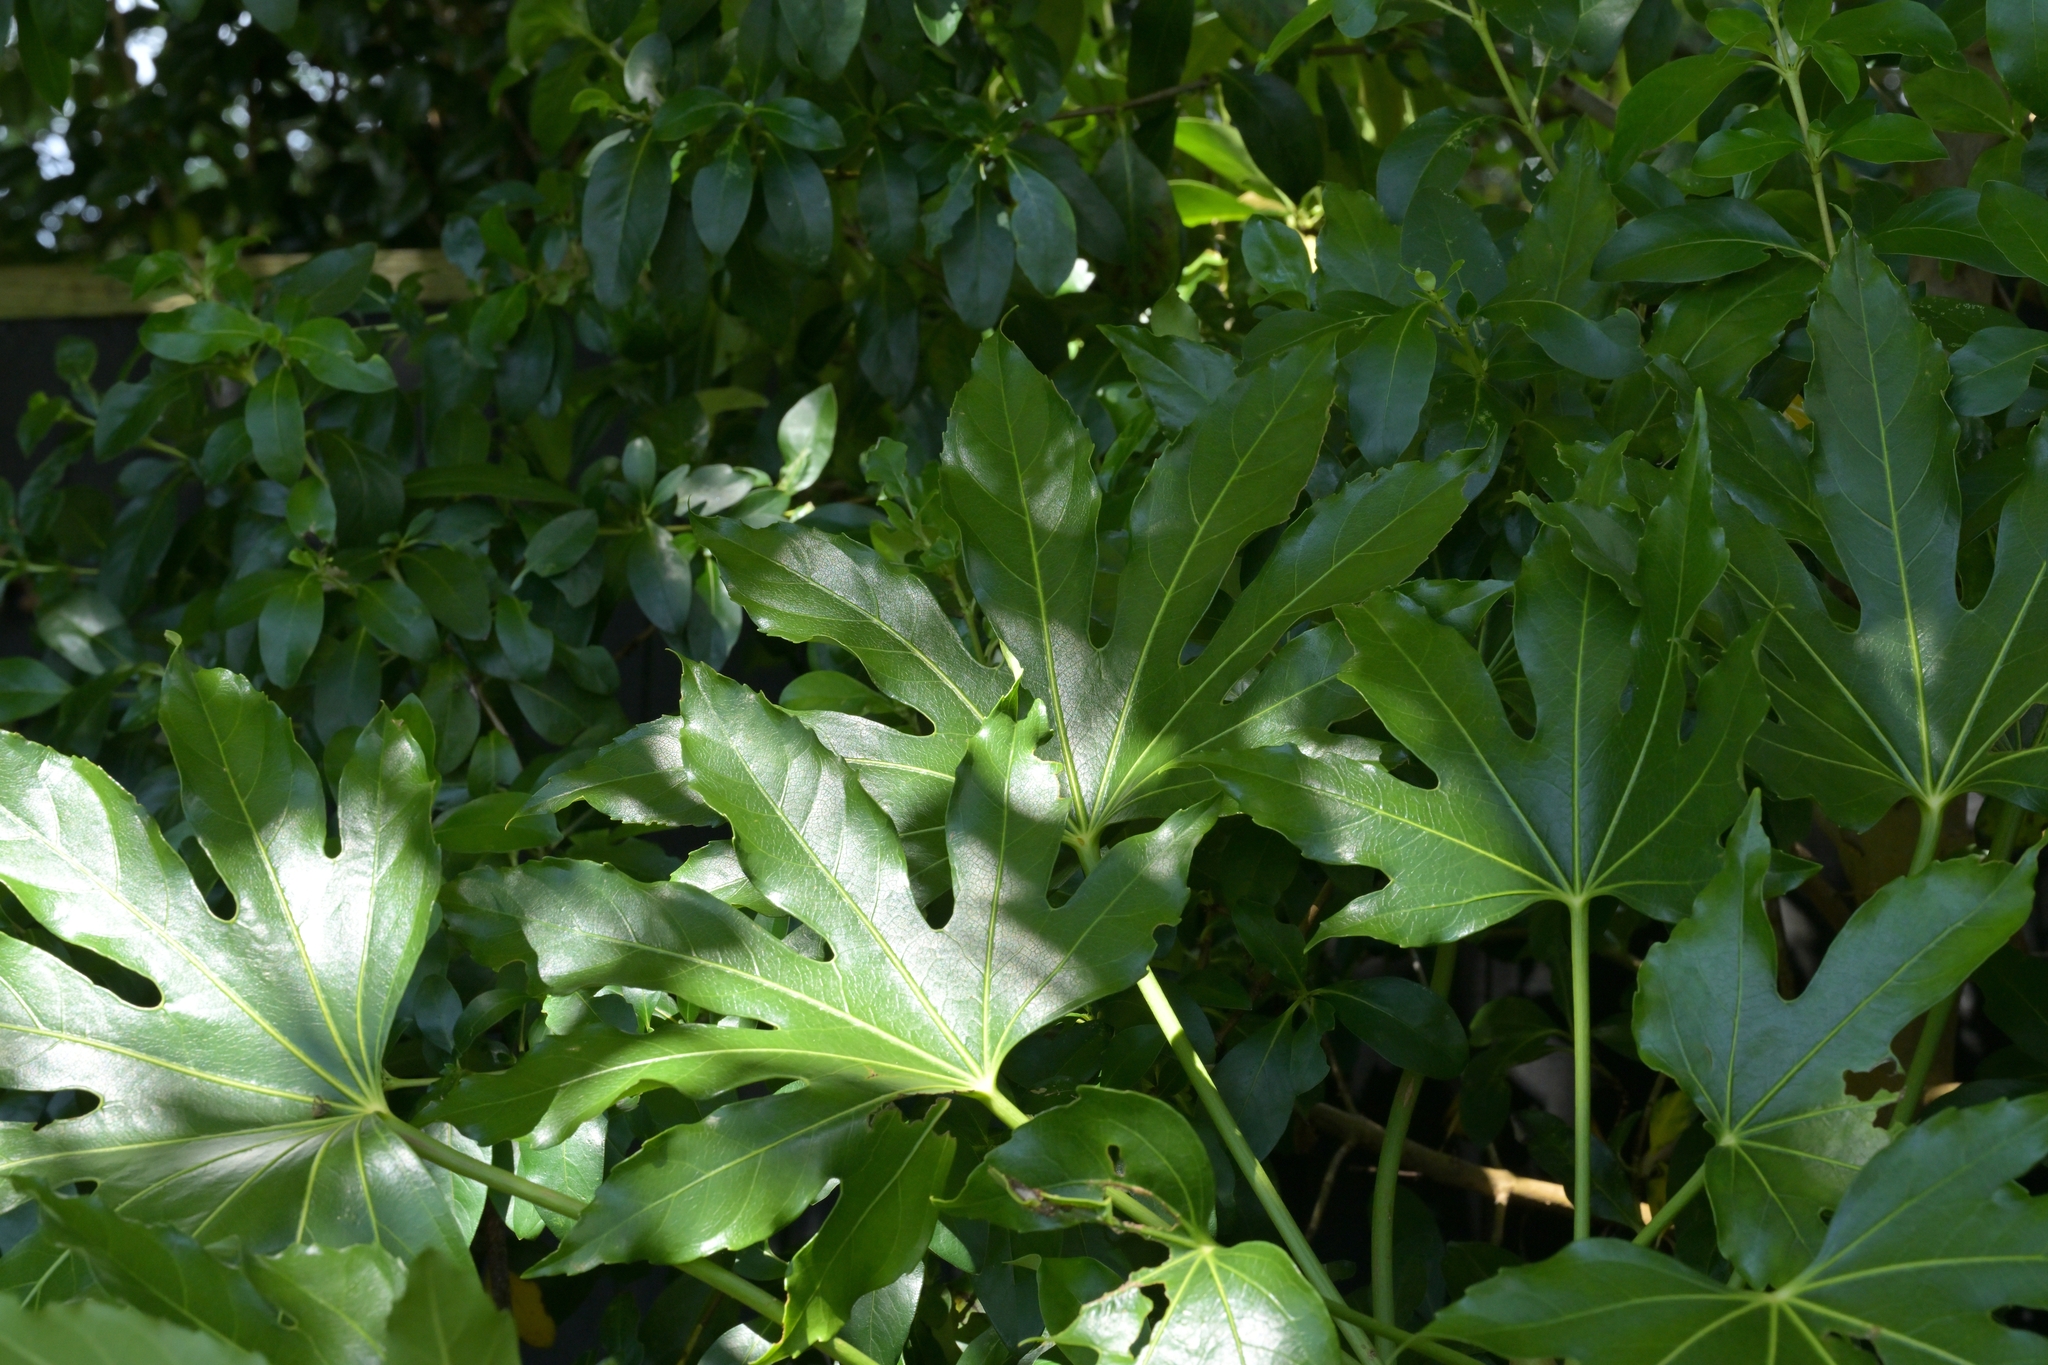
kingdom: Plantae
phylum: Tracheophyta
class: Magnoliopsida
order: Apiales
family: Araliaceae
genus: Fatsia
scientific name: Fatsia japonica
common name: Fatsia
